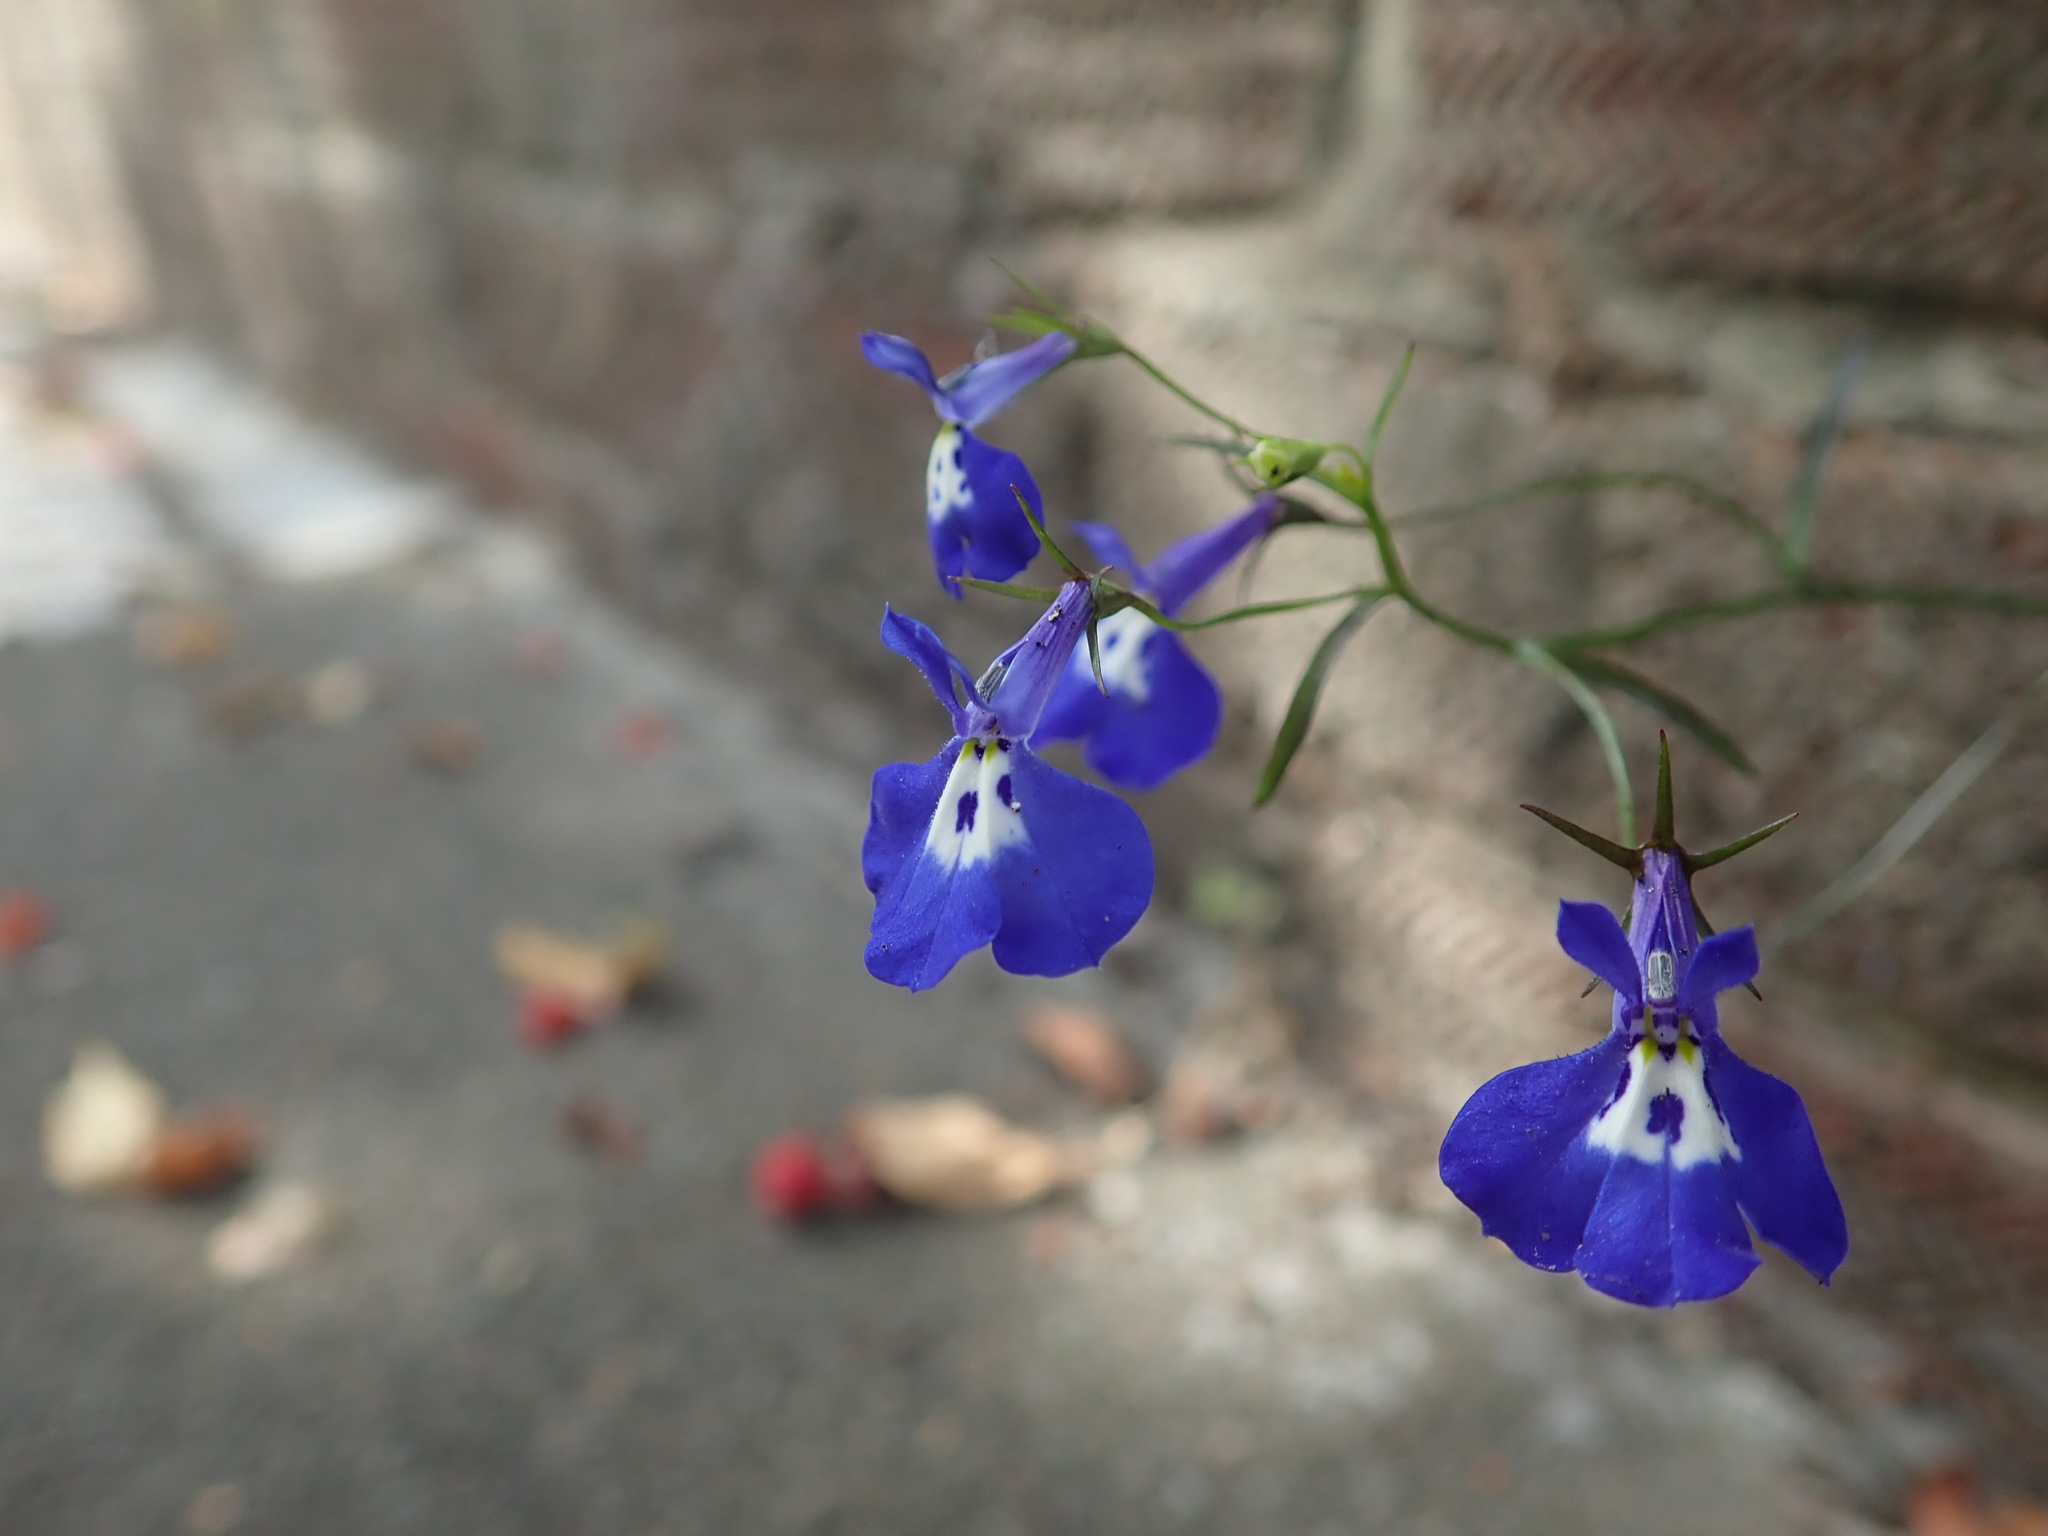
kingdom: Plantae
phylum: Tracheophyta
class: Magnoliopsida
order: Asterales
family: Campanulaceae
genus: Lobelia
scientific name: Lobelia erinus
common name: Edging lobelia
